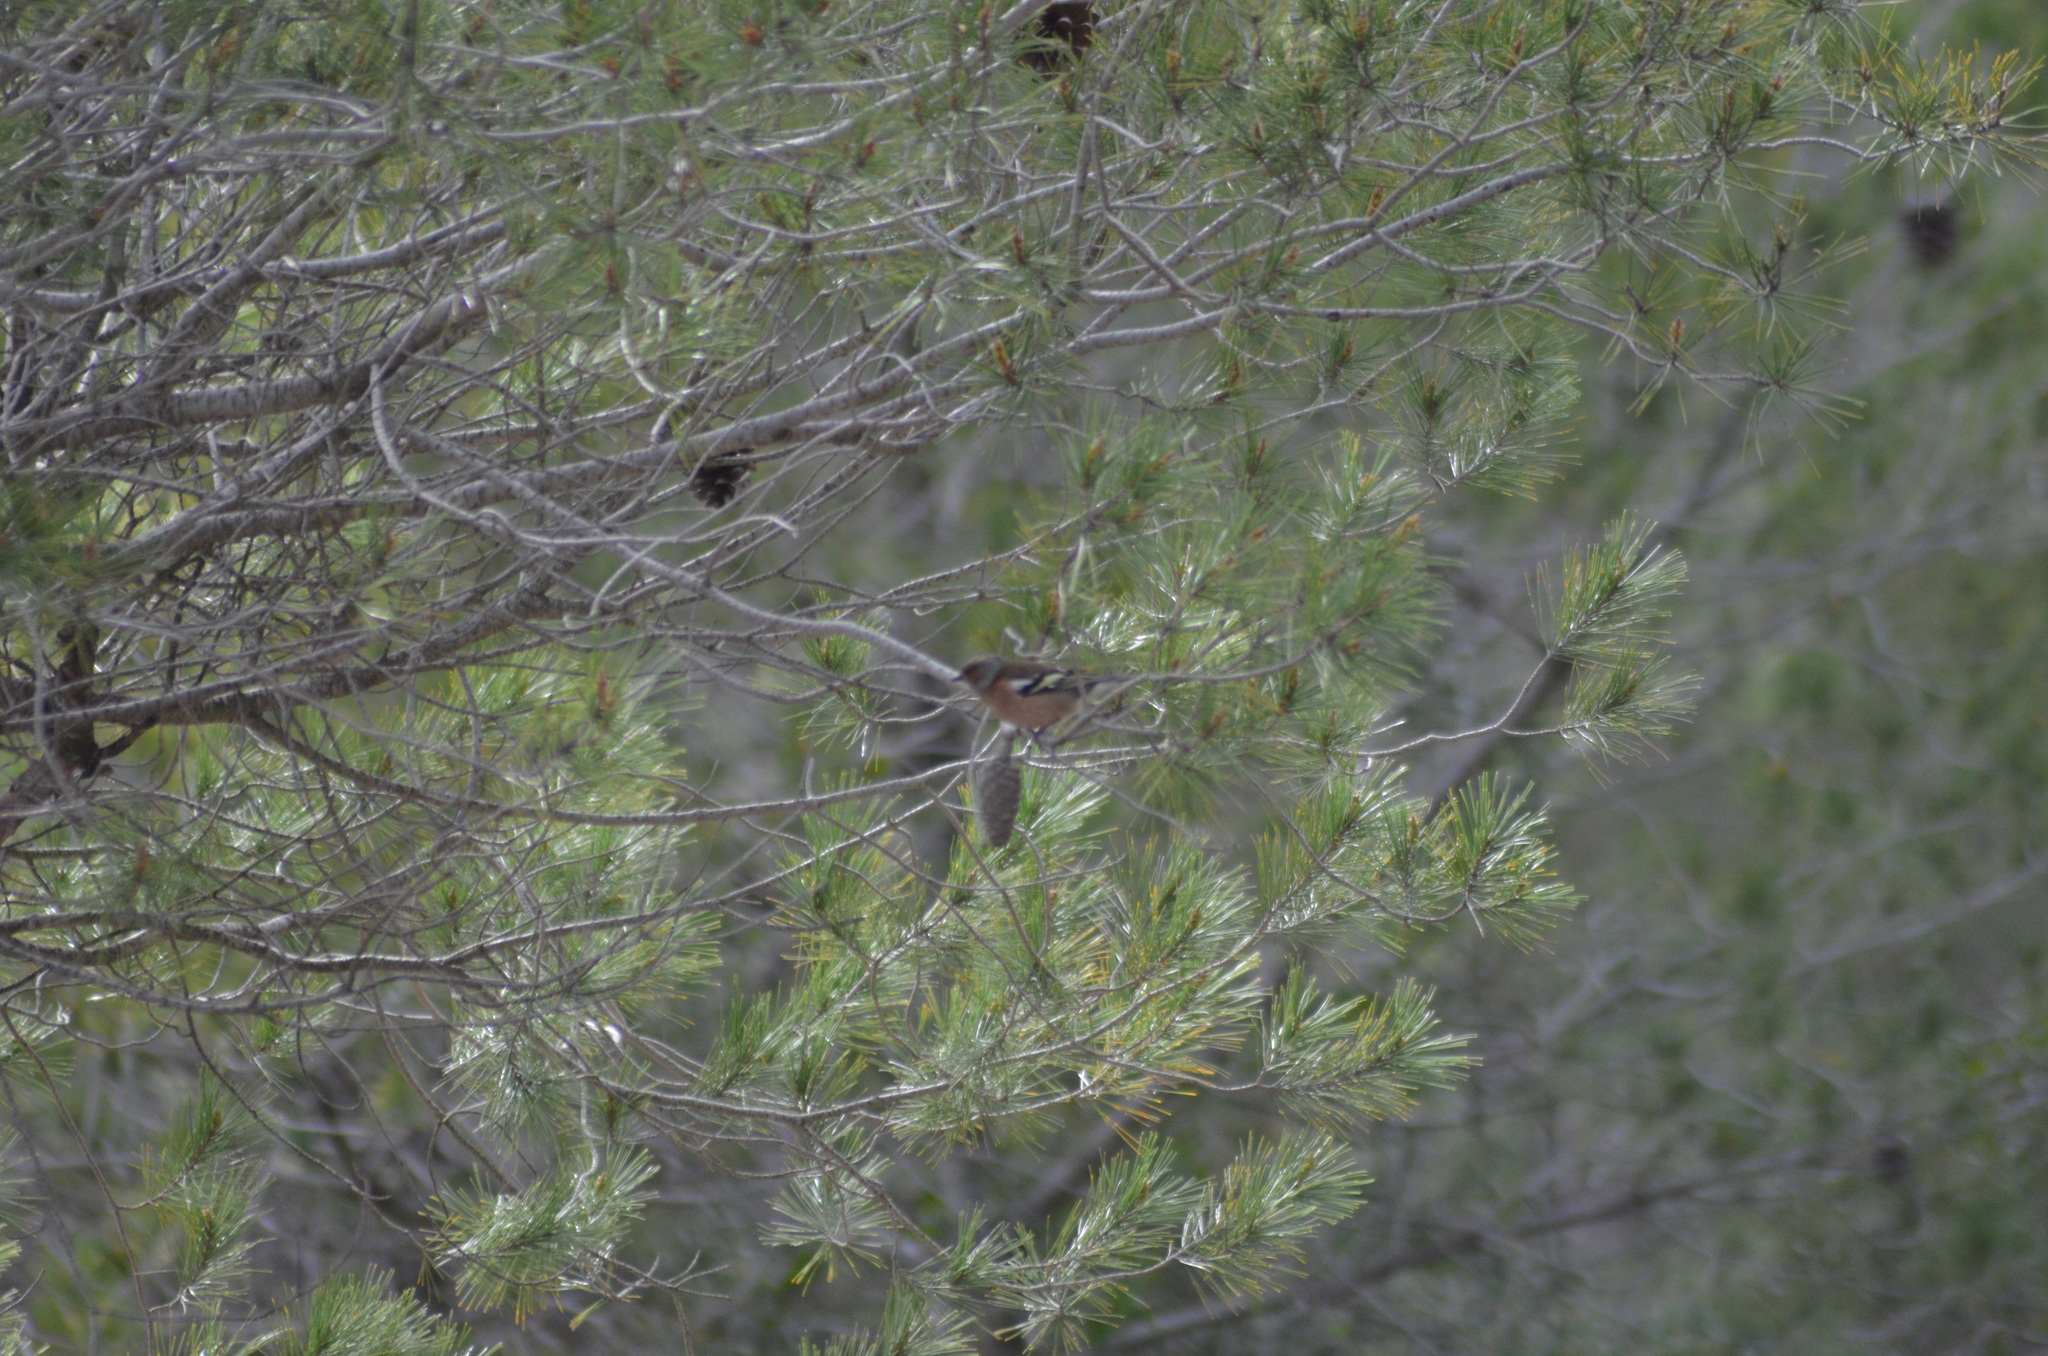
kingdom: Animalia
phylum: Chordata
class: Aves
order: Passeriformes
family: Fringillidae
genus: Fringilla
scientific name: Fringilla coelebs
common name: Common chaffinch
